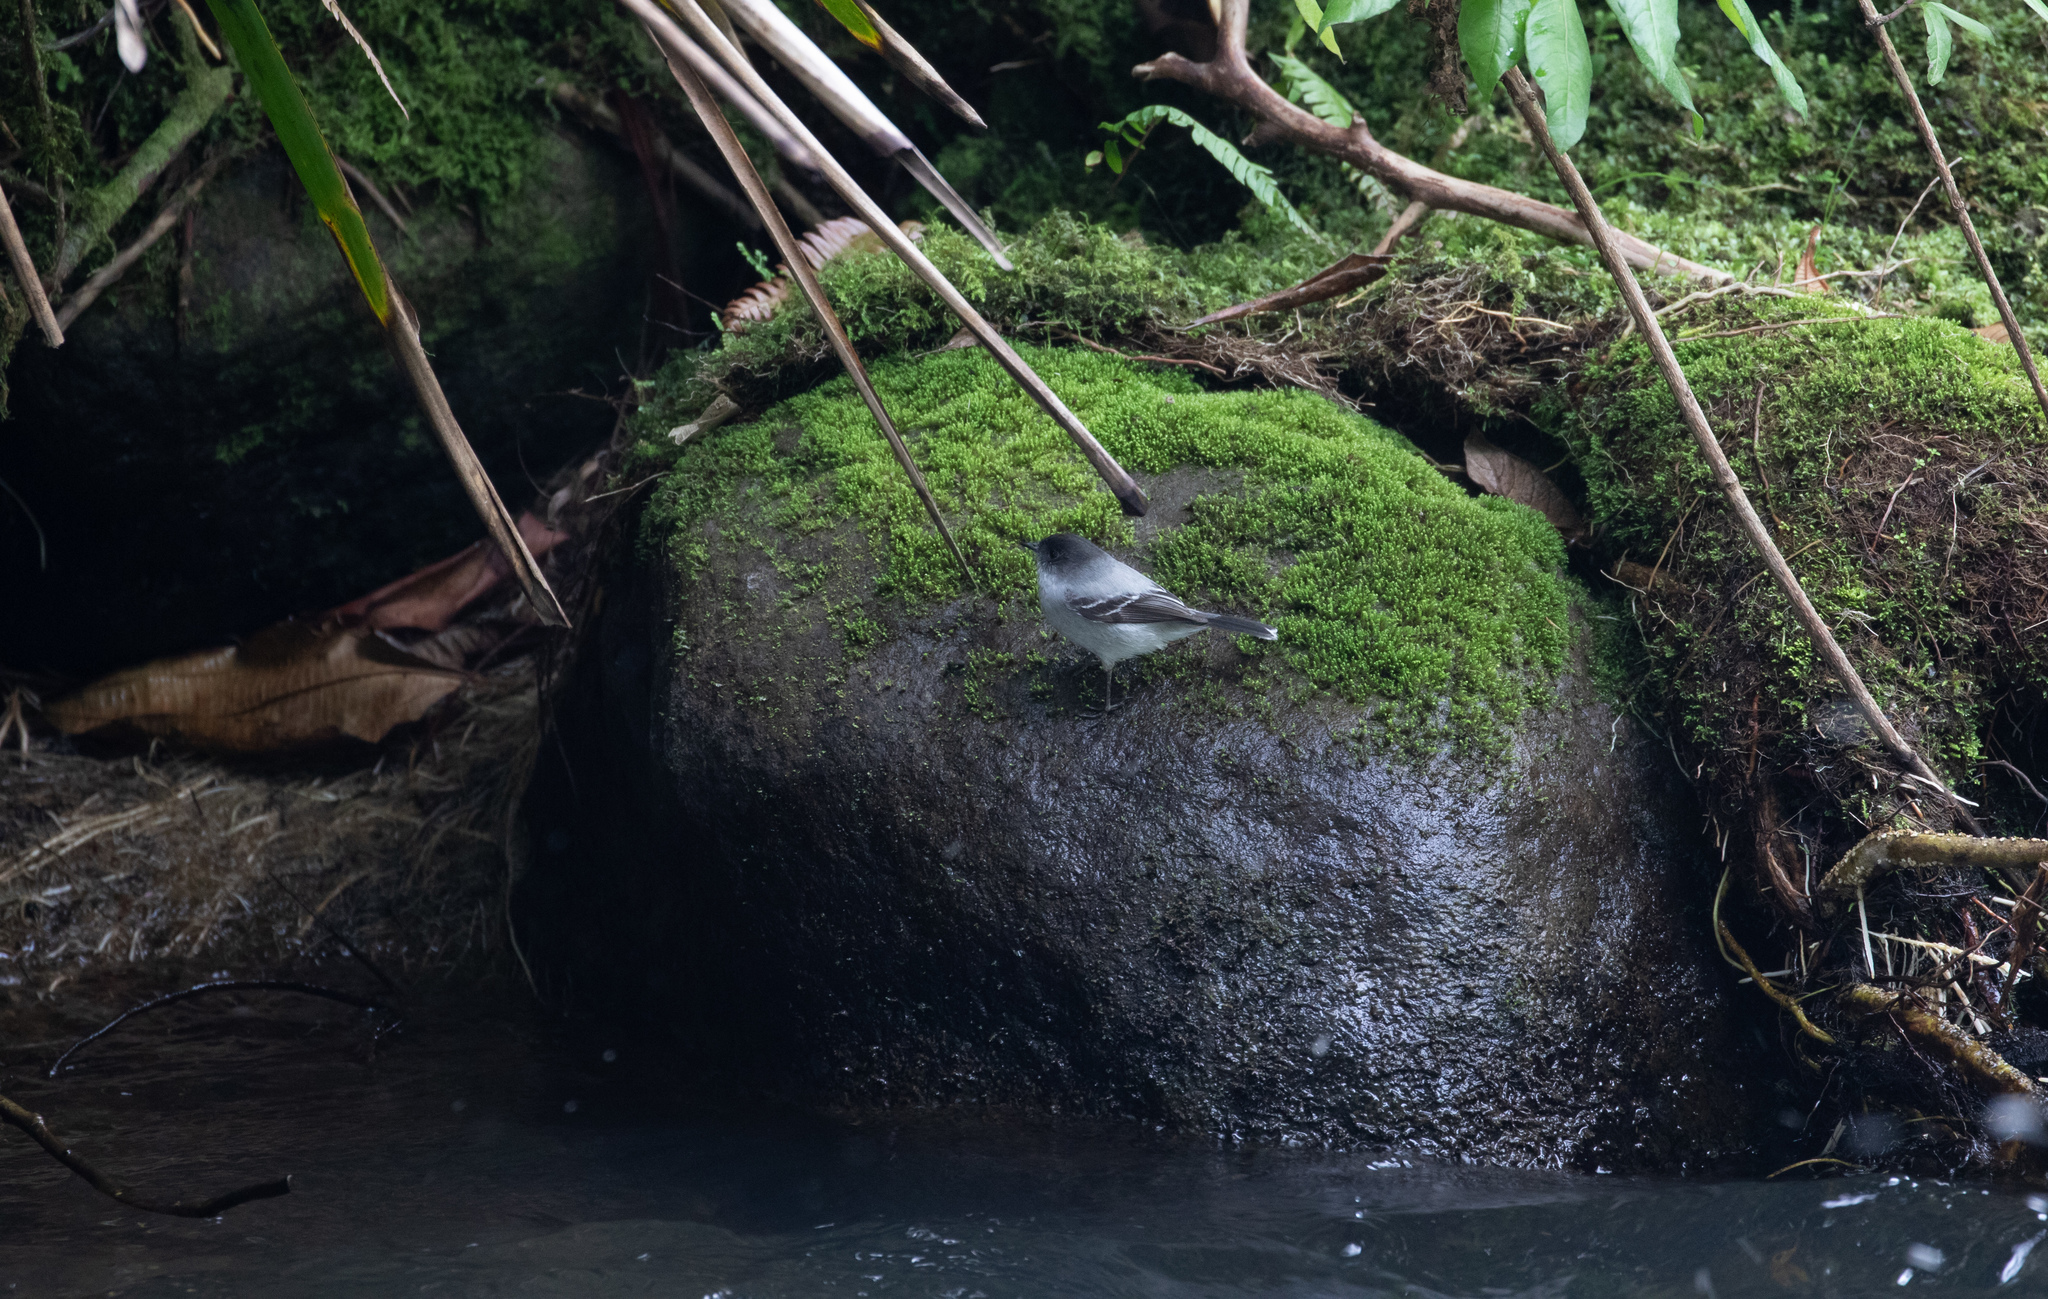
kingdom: Animalia
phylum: Chordata
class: Aves
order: Passeriformes
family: Tyrannidae
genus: Serpophaga
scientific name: Serpophaga cinerea
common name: Torrent tyrannulet
